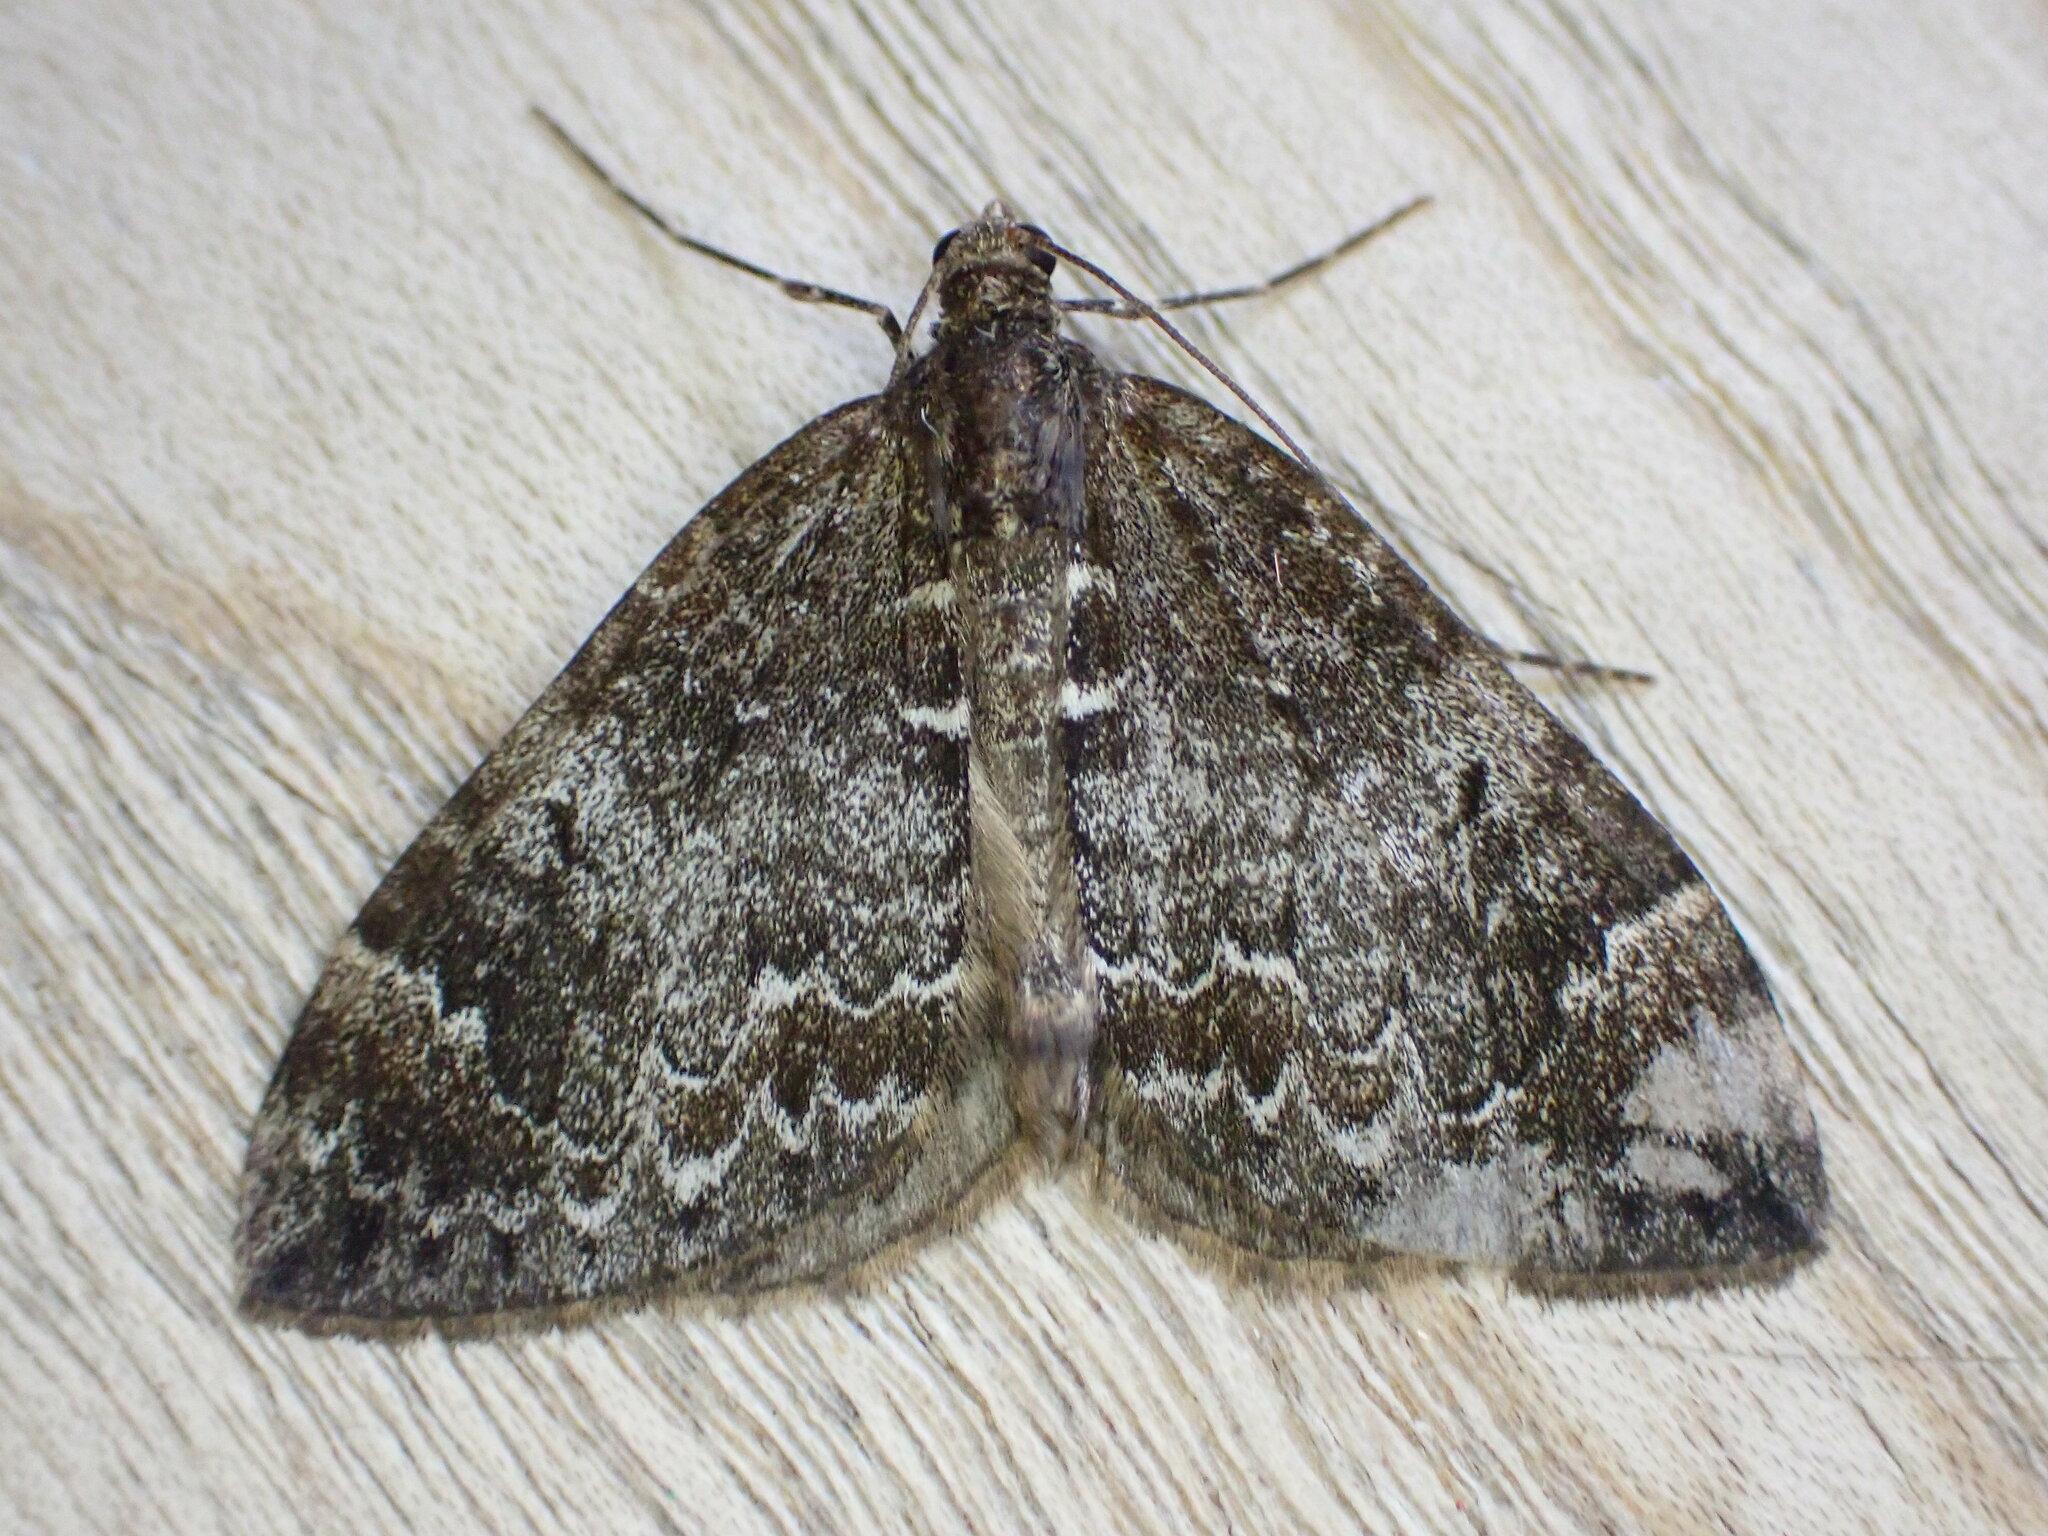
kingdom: Animalia
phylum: Arthropoda
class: Insecta
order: Lepidoptera
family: Geometridae
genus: Dysstroma
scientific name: Dysstroma truncata
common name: Common marbled carpet
